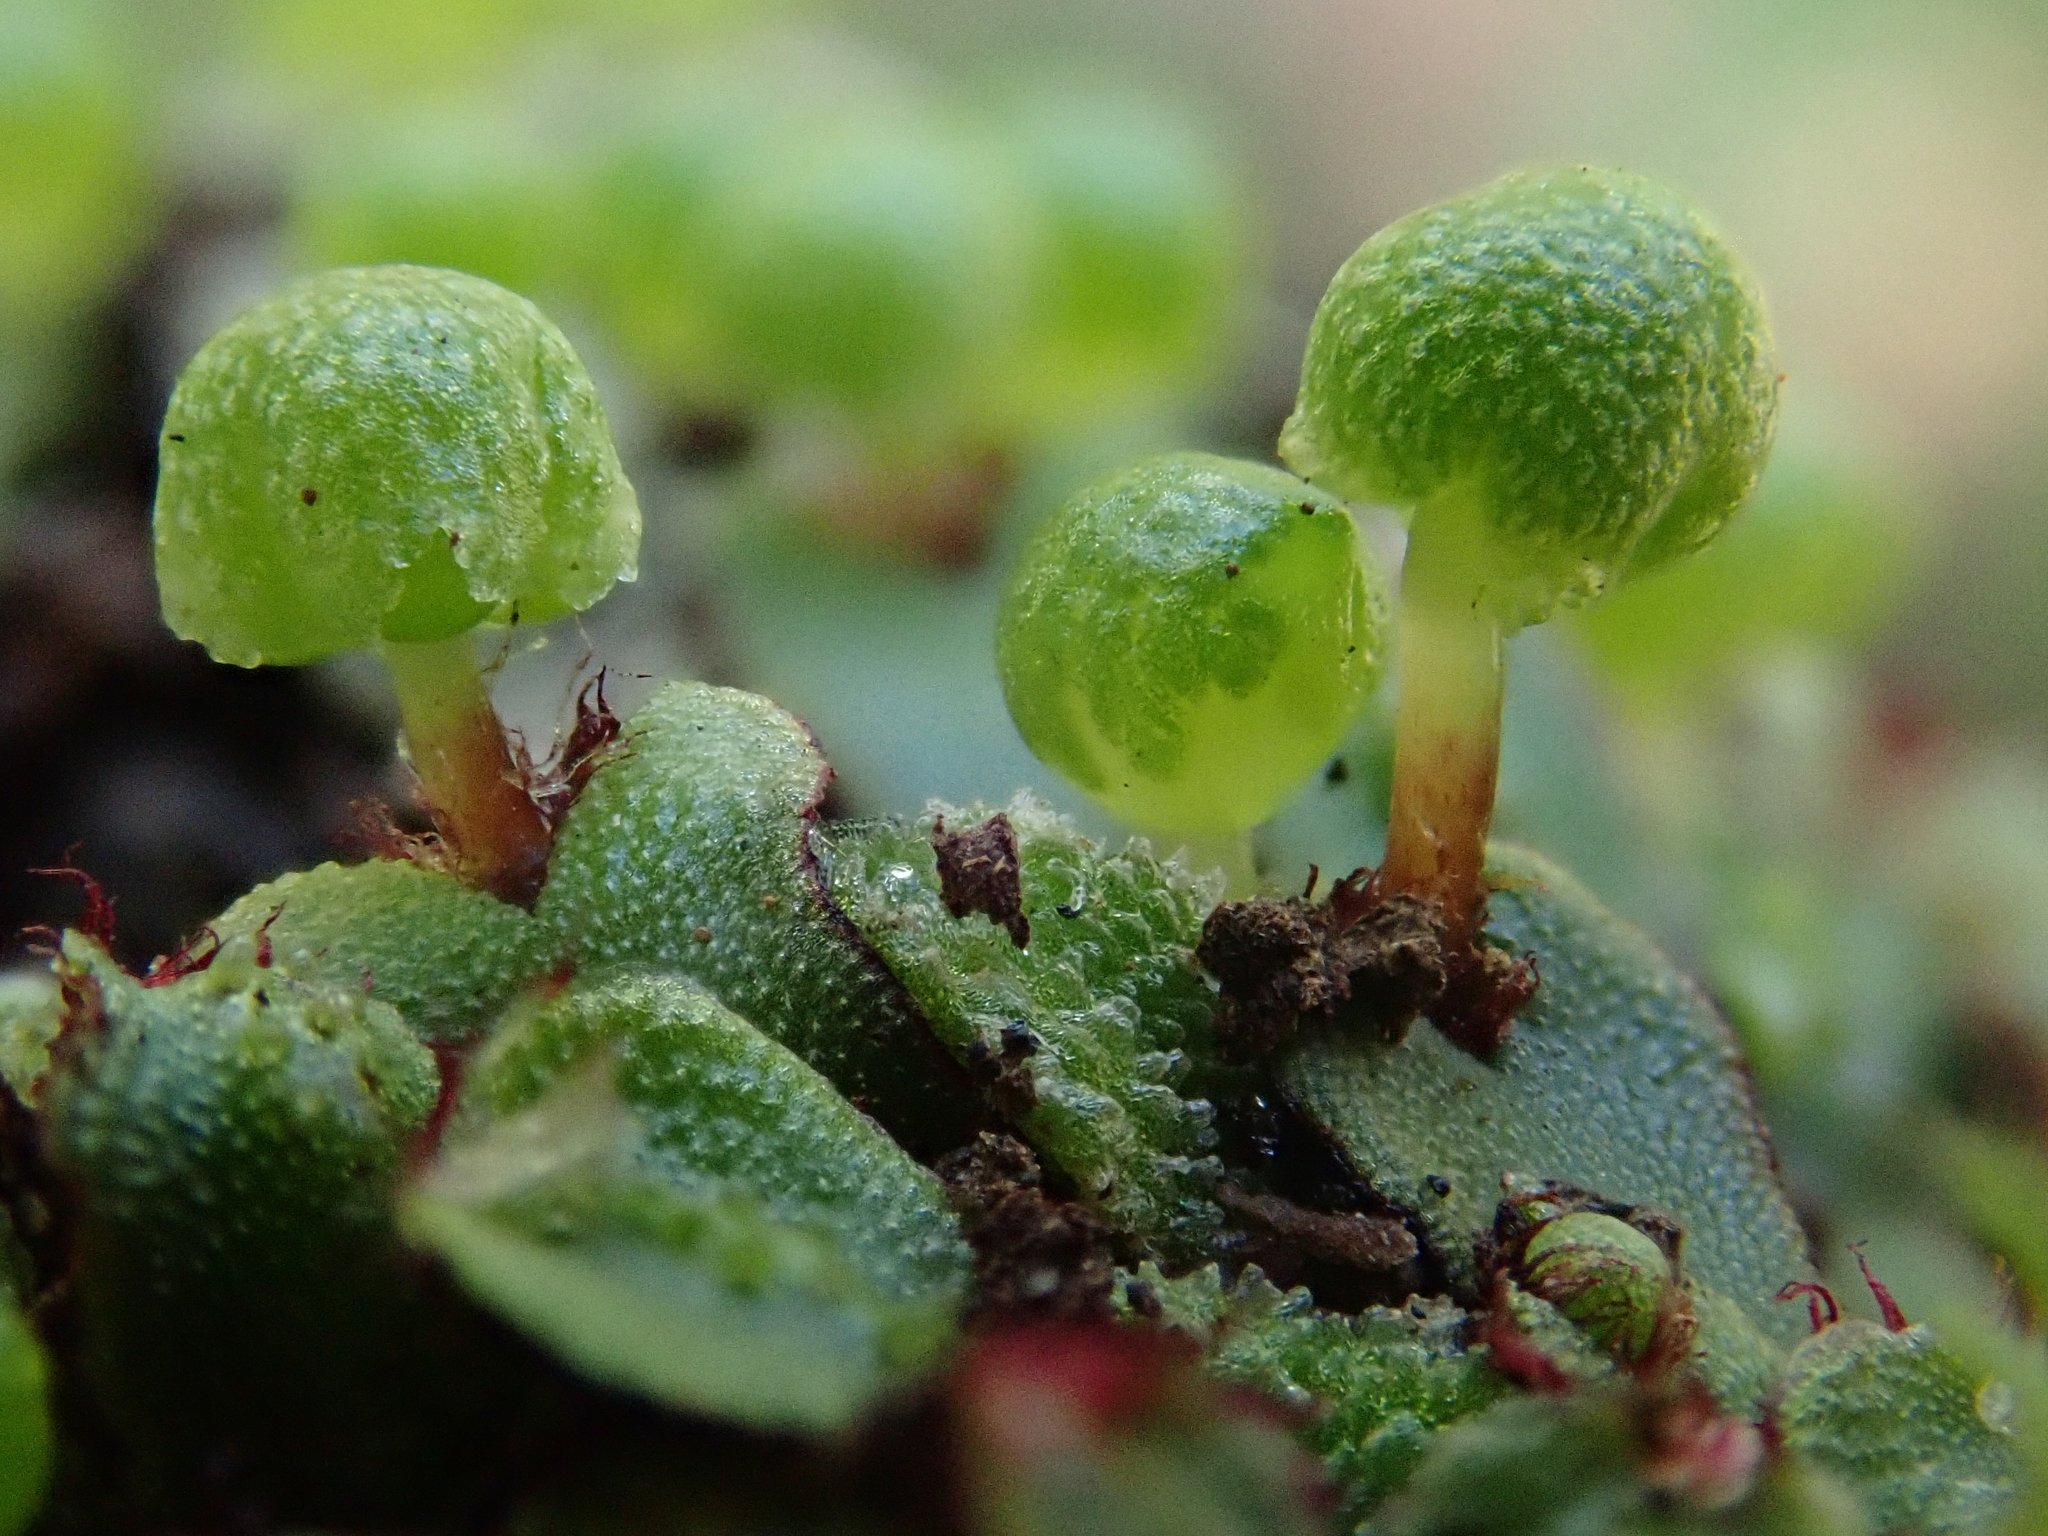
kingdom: Plantae
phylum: Marchantiophyta
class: Marchantiopsida
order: Marchantiales
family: Aytoniaceae
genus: Mannia
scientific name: Mannia androgyna
